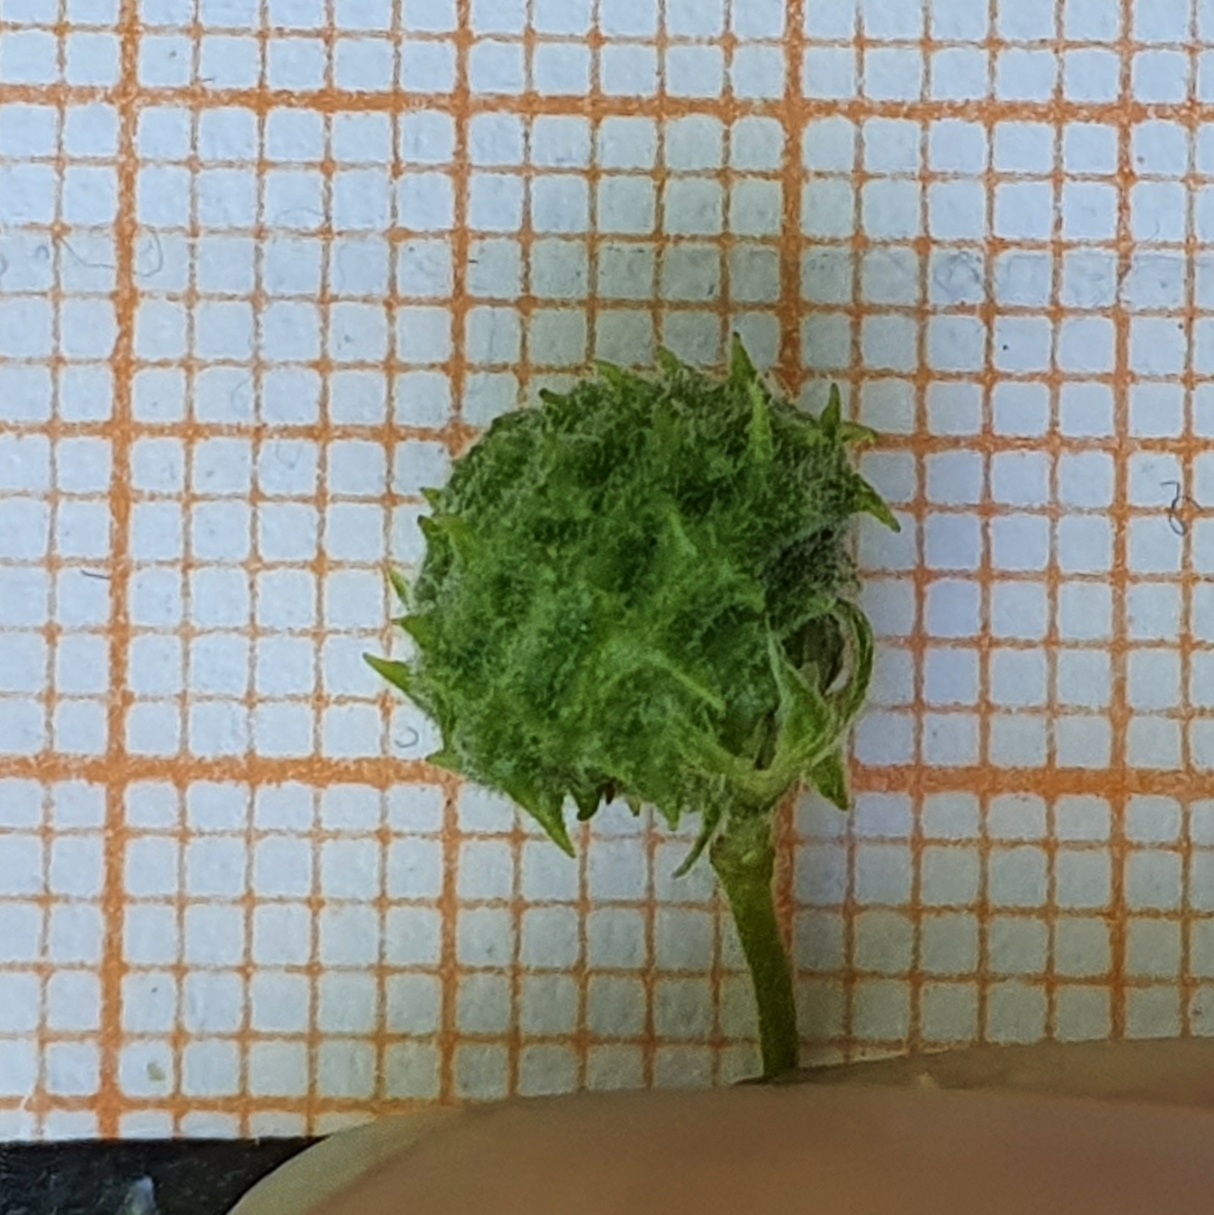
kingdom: Plantae
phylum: Tracheophyta
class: Magnoliopsida
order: Fabales
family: Fabaceae
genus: Medicago
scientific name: Medicago doliata
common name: Keg medic
